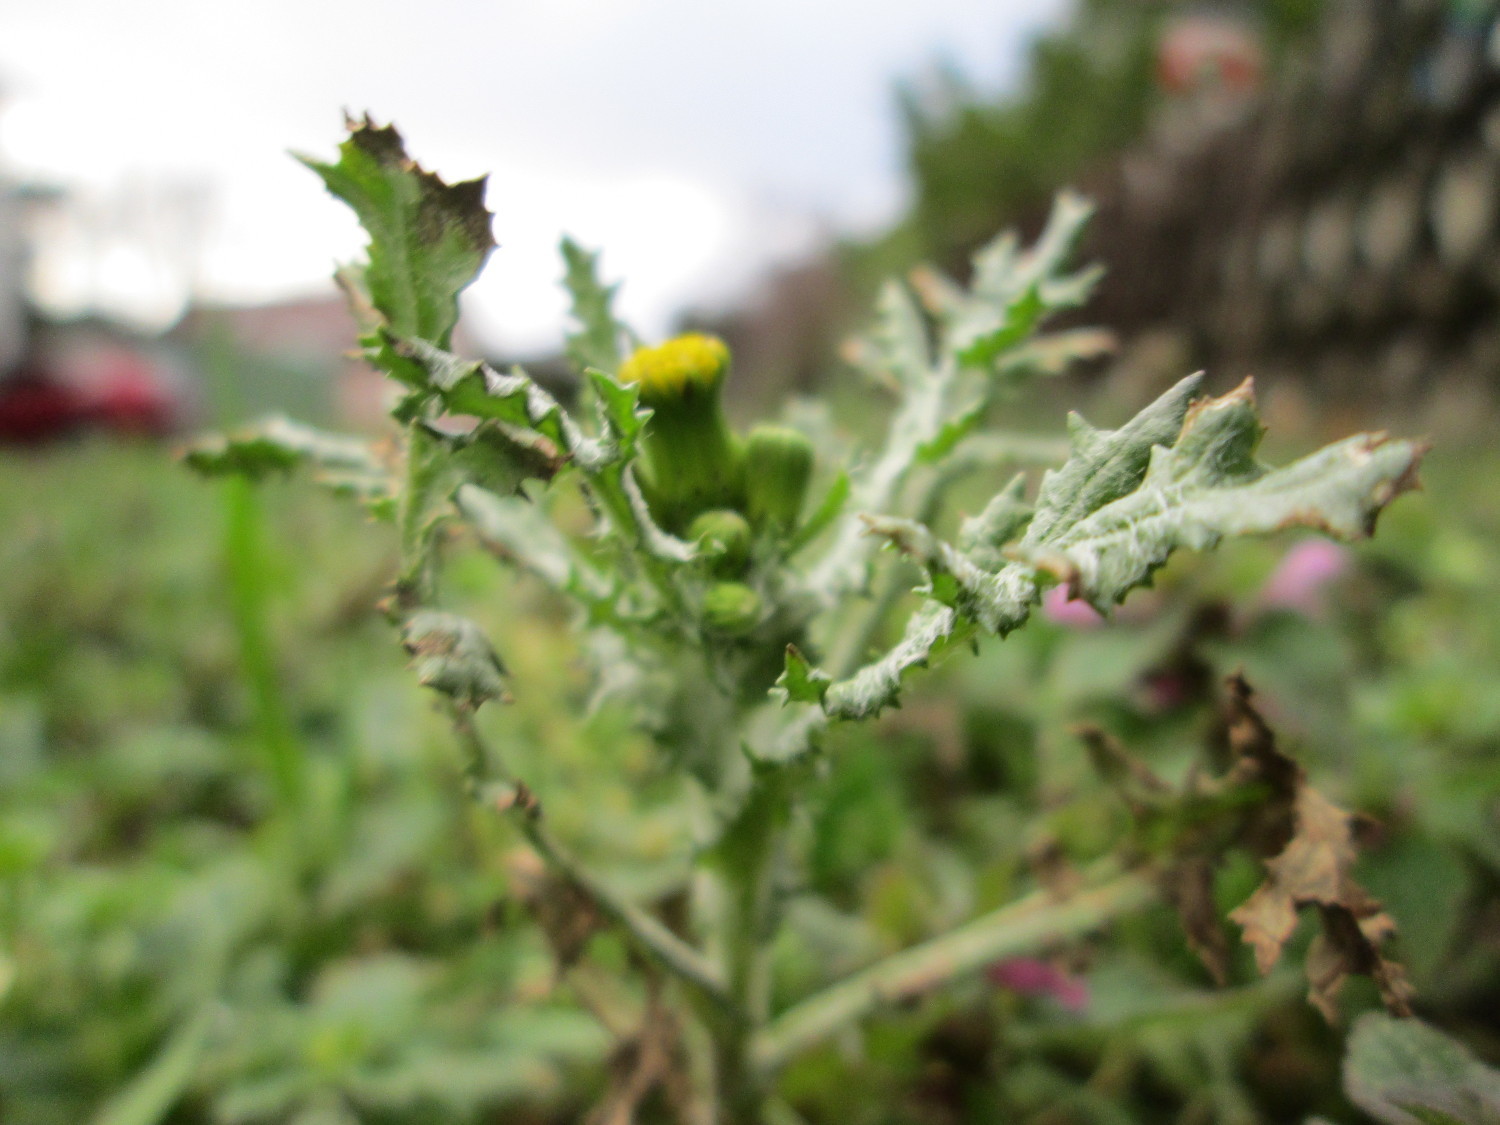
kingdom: Plantae
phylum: Tracheophyta
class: Magnoliopsida
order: Asterales
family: Asteraceae
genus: Senecio
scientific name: Senecio vulgaris
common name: Old-man-in-the-spring
